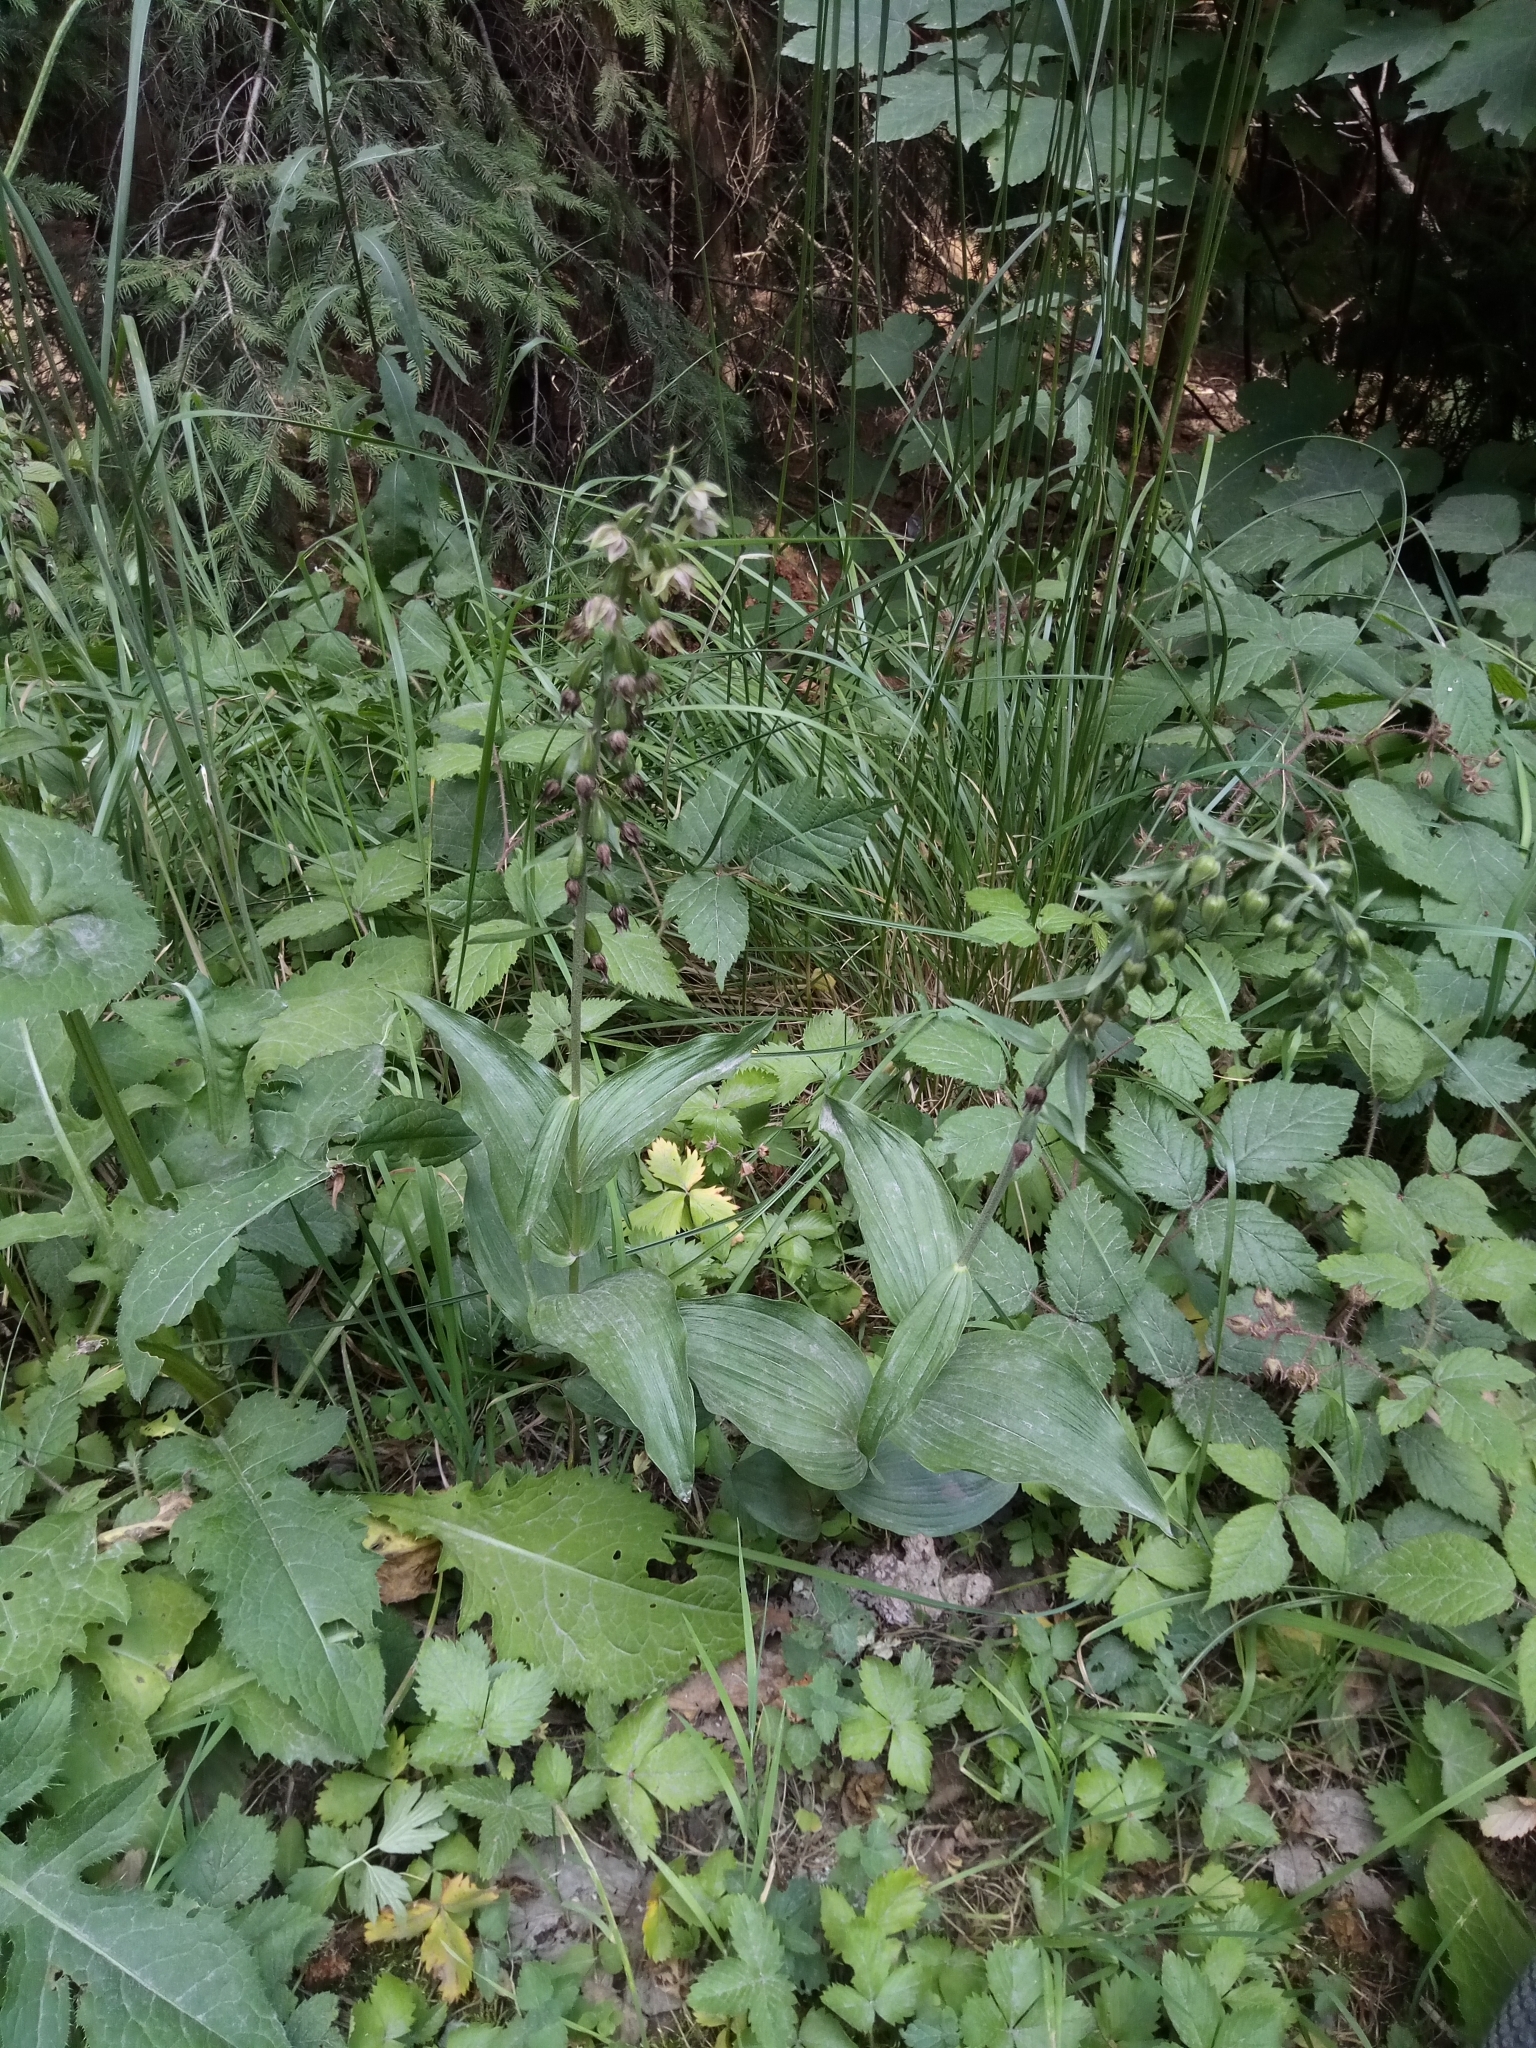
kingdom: Plantae
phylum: Tracheophyta
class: Liliopsida
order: Asparagales
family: Orchidaceae
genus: Epipactis
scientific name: Epipactis helleborine
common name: Broad-leaved helleborine
